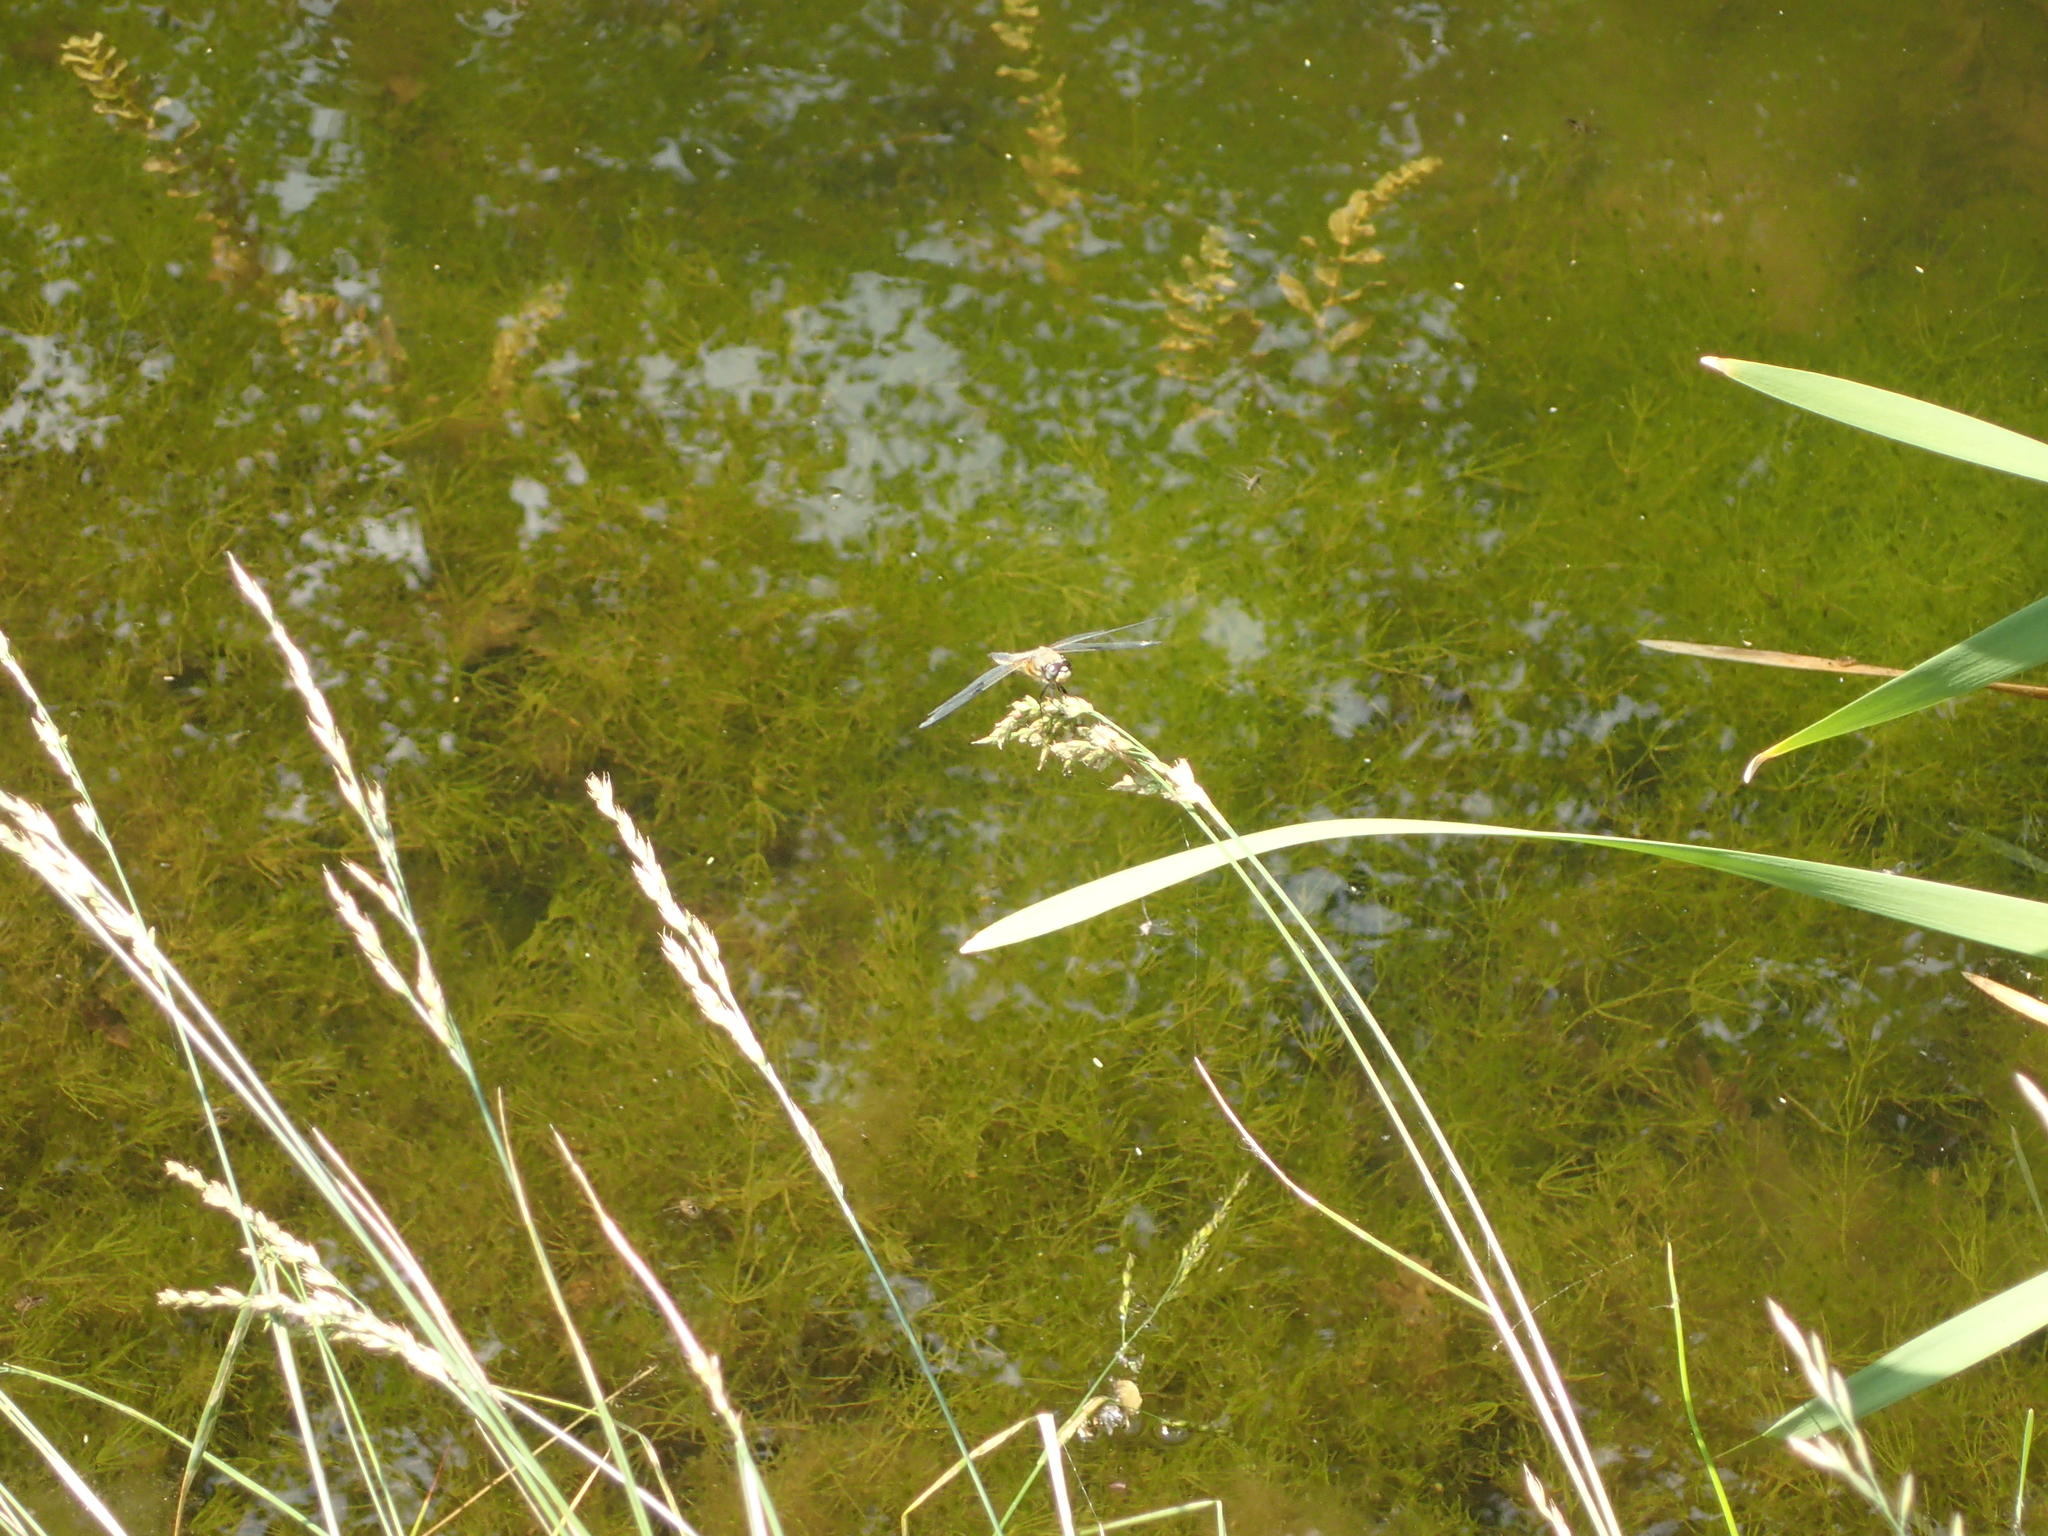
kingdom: Animalia
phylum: Arthropoda
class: Insecta
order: Odonata
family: Libellulidae
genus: Libellula
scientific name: Libellula quadrimaculata
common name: Four-spotted chaser
